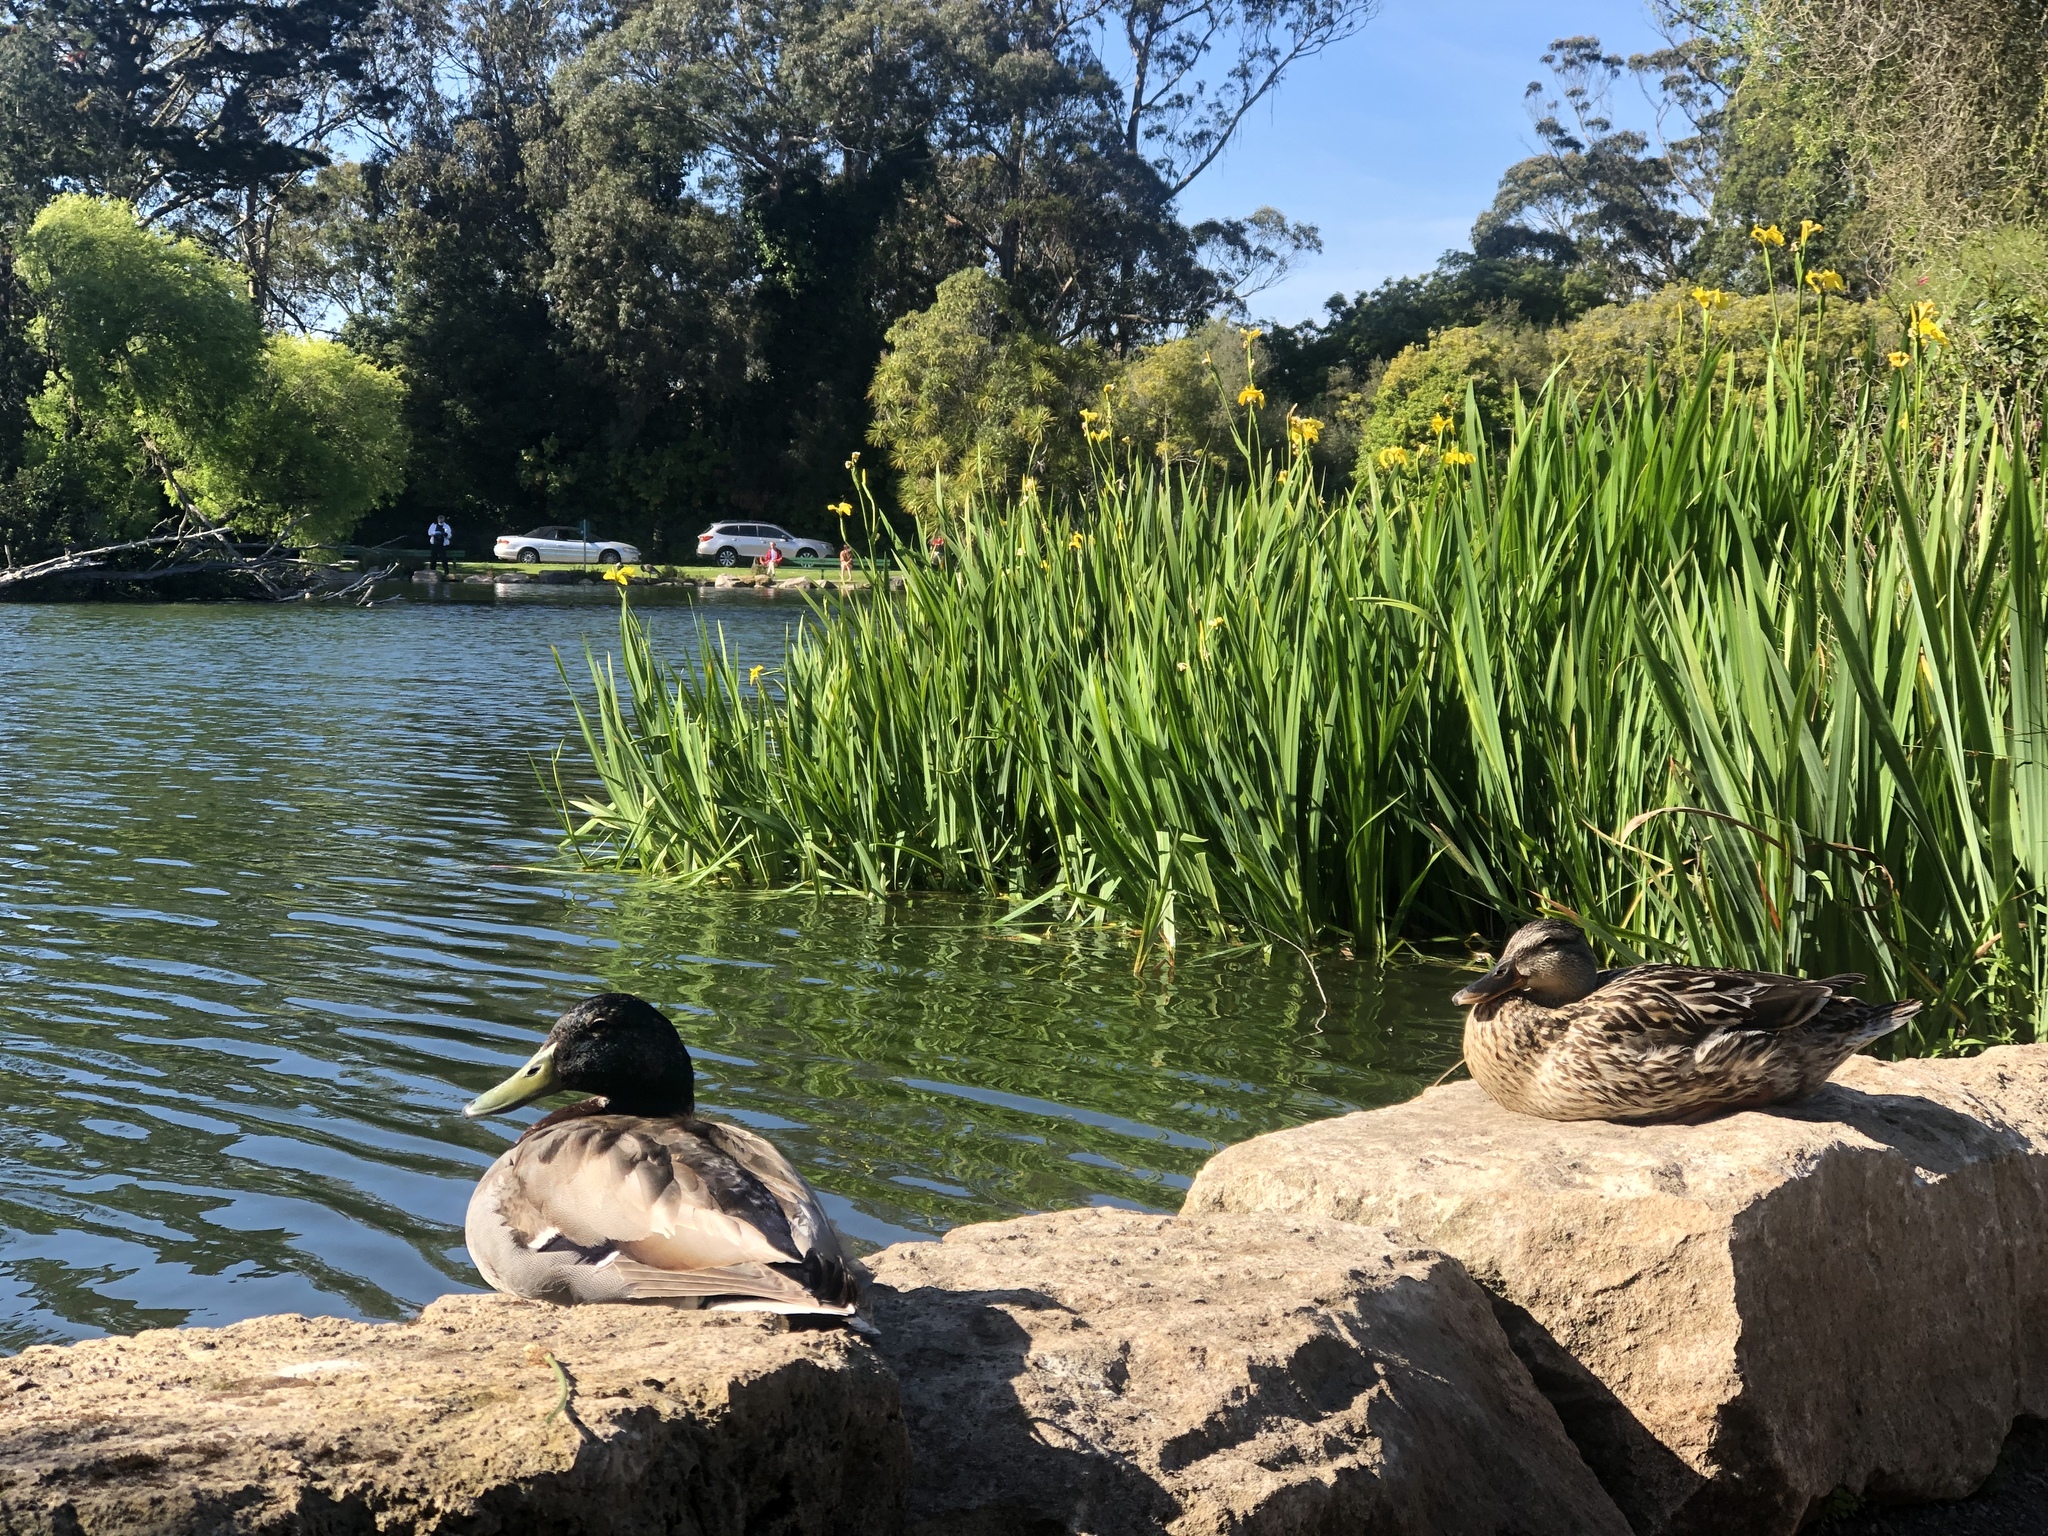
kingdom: Animalia
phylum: Chordata
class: Aves
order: Anseriformes
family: Anatidae
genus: Anas
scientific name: Anas platyrhynchos
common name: Mallard
